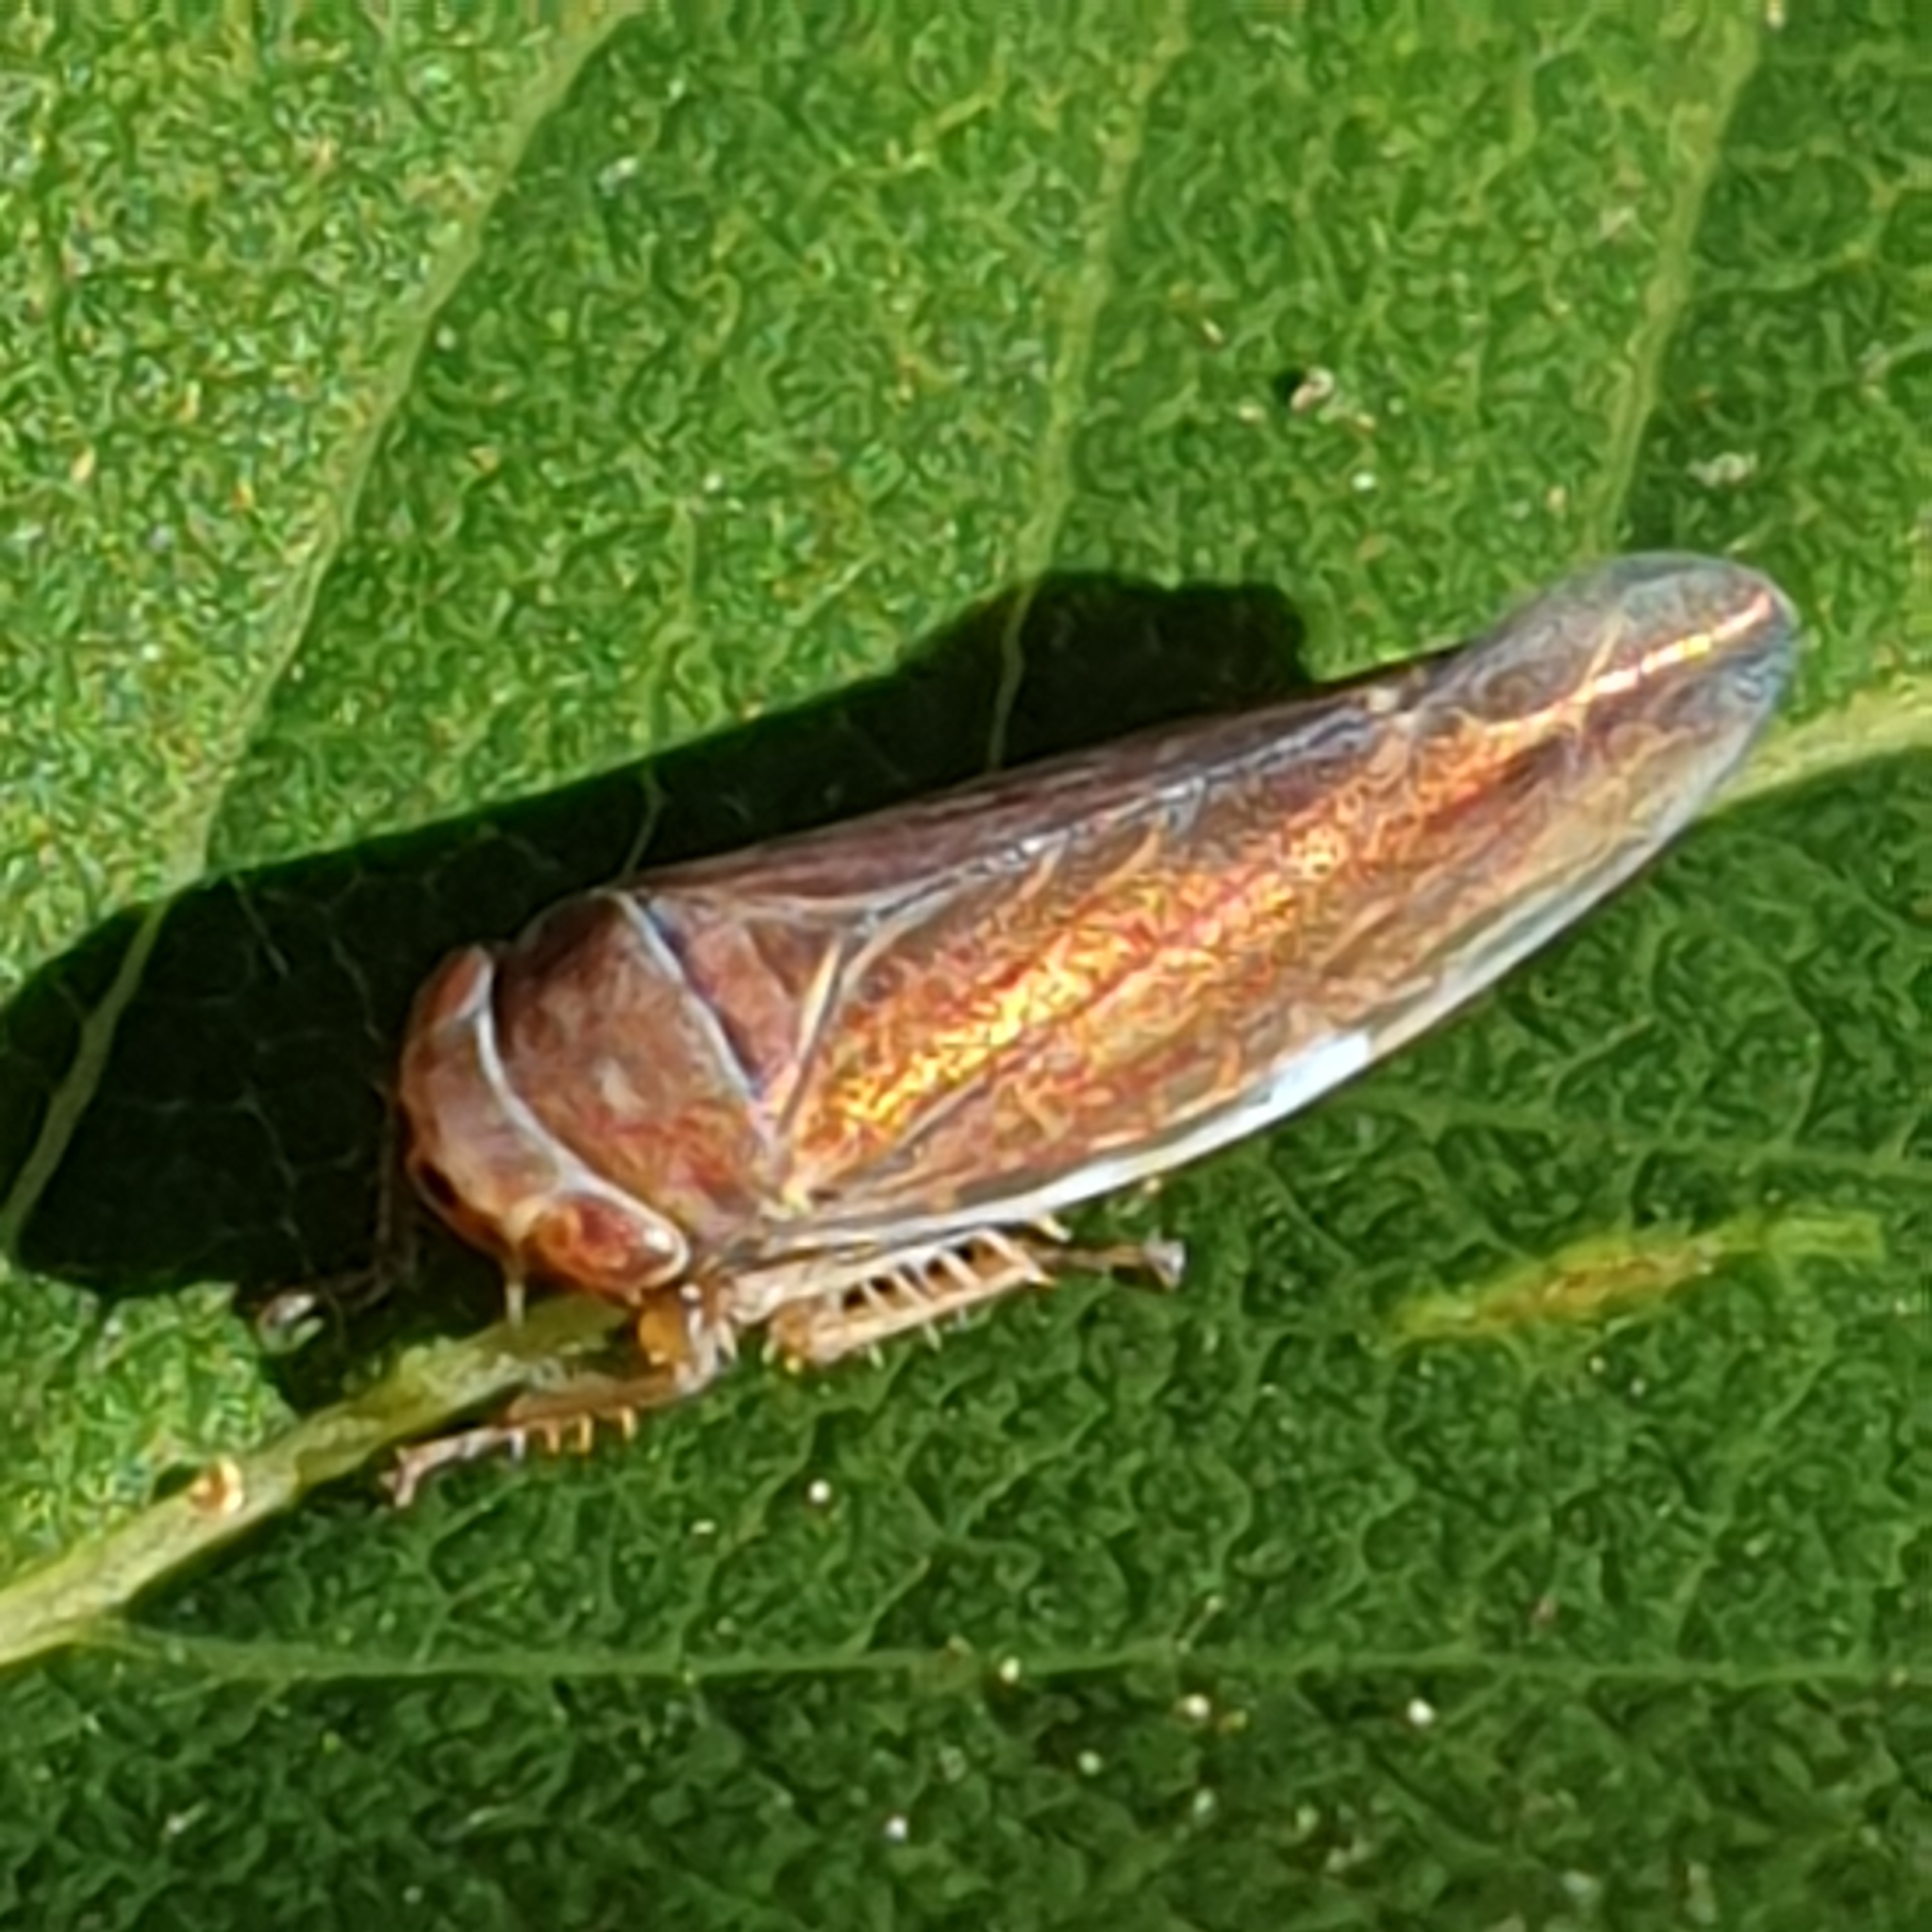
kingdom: Animalia
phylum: Arthropoda
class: Insecta
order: Hemiptera
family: Cicadellidae
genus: Idiodonus
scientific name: Idiodonus cruentatus
